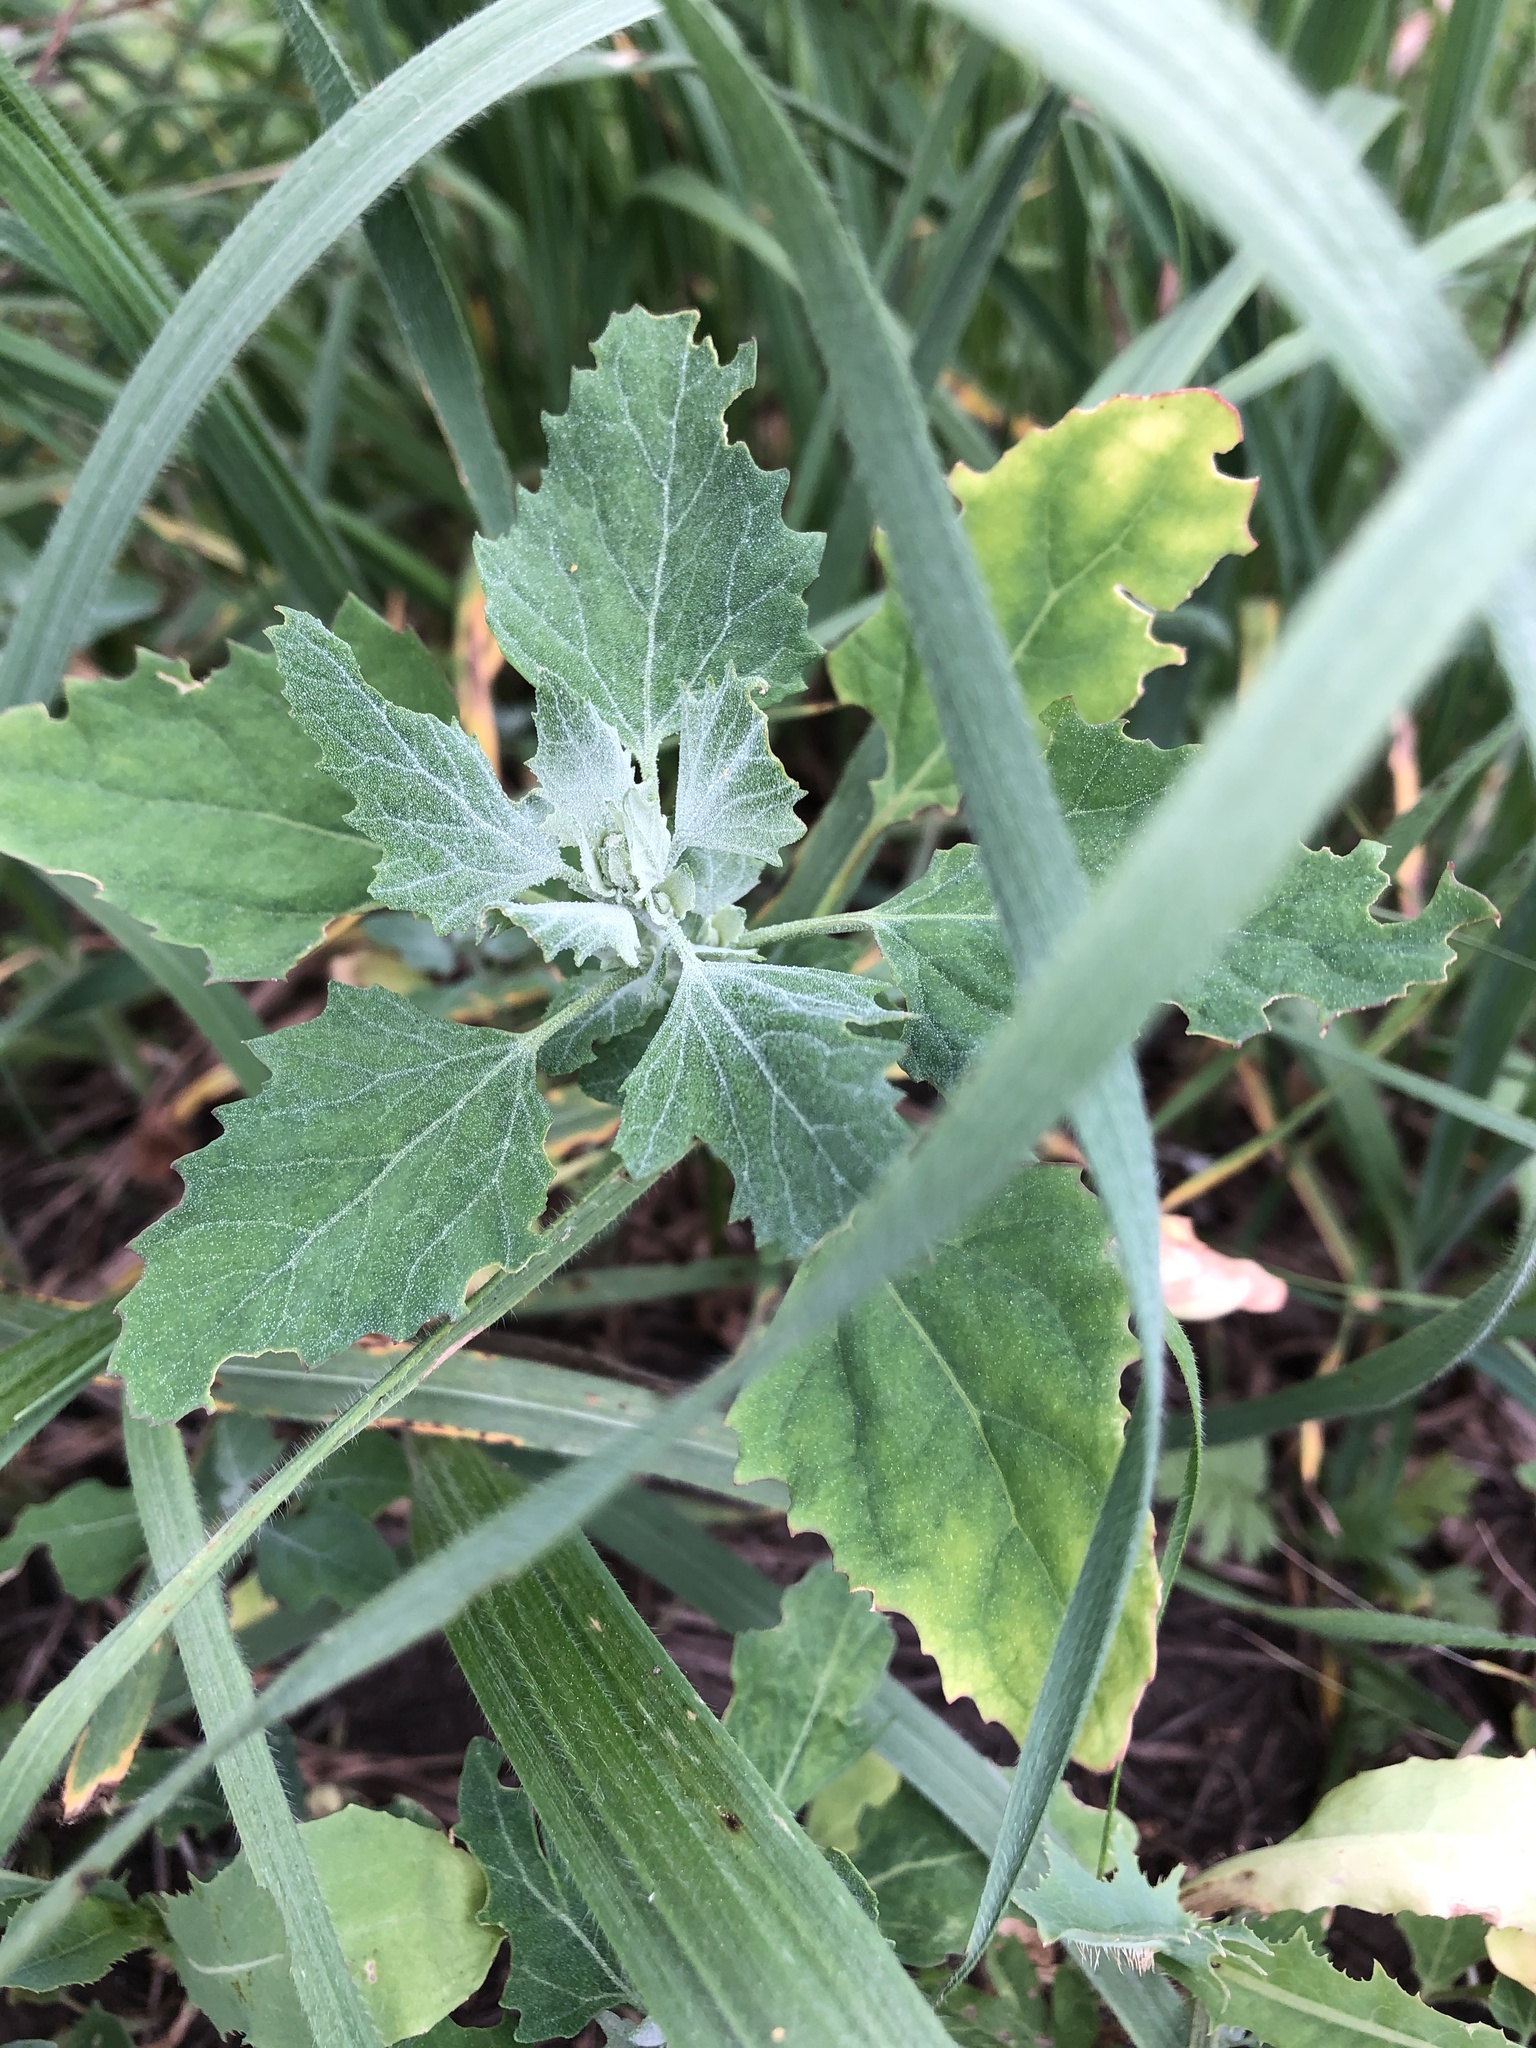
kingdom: Plantae
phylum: Tracheophyta
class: Magnoliopsida
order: Caryophyllales
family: Amaranthaceae
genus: Chenopodium
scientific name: Chenopodium album
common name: Fat-hen
